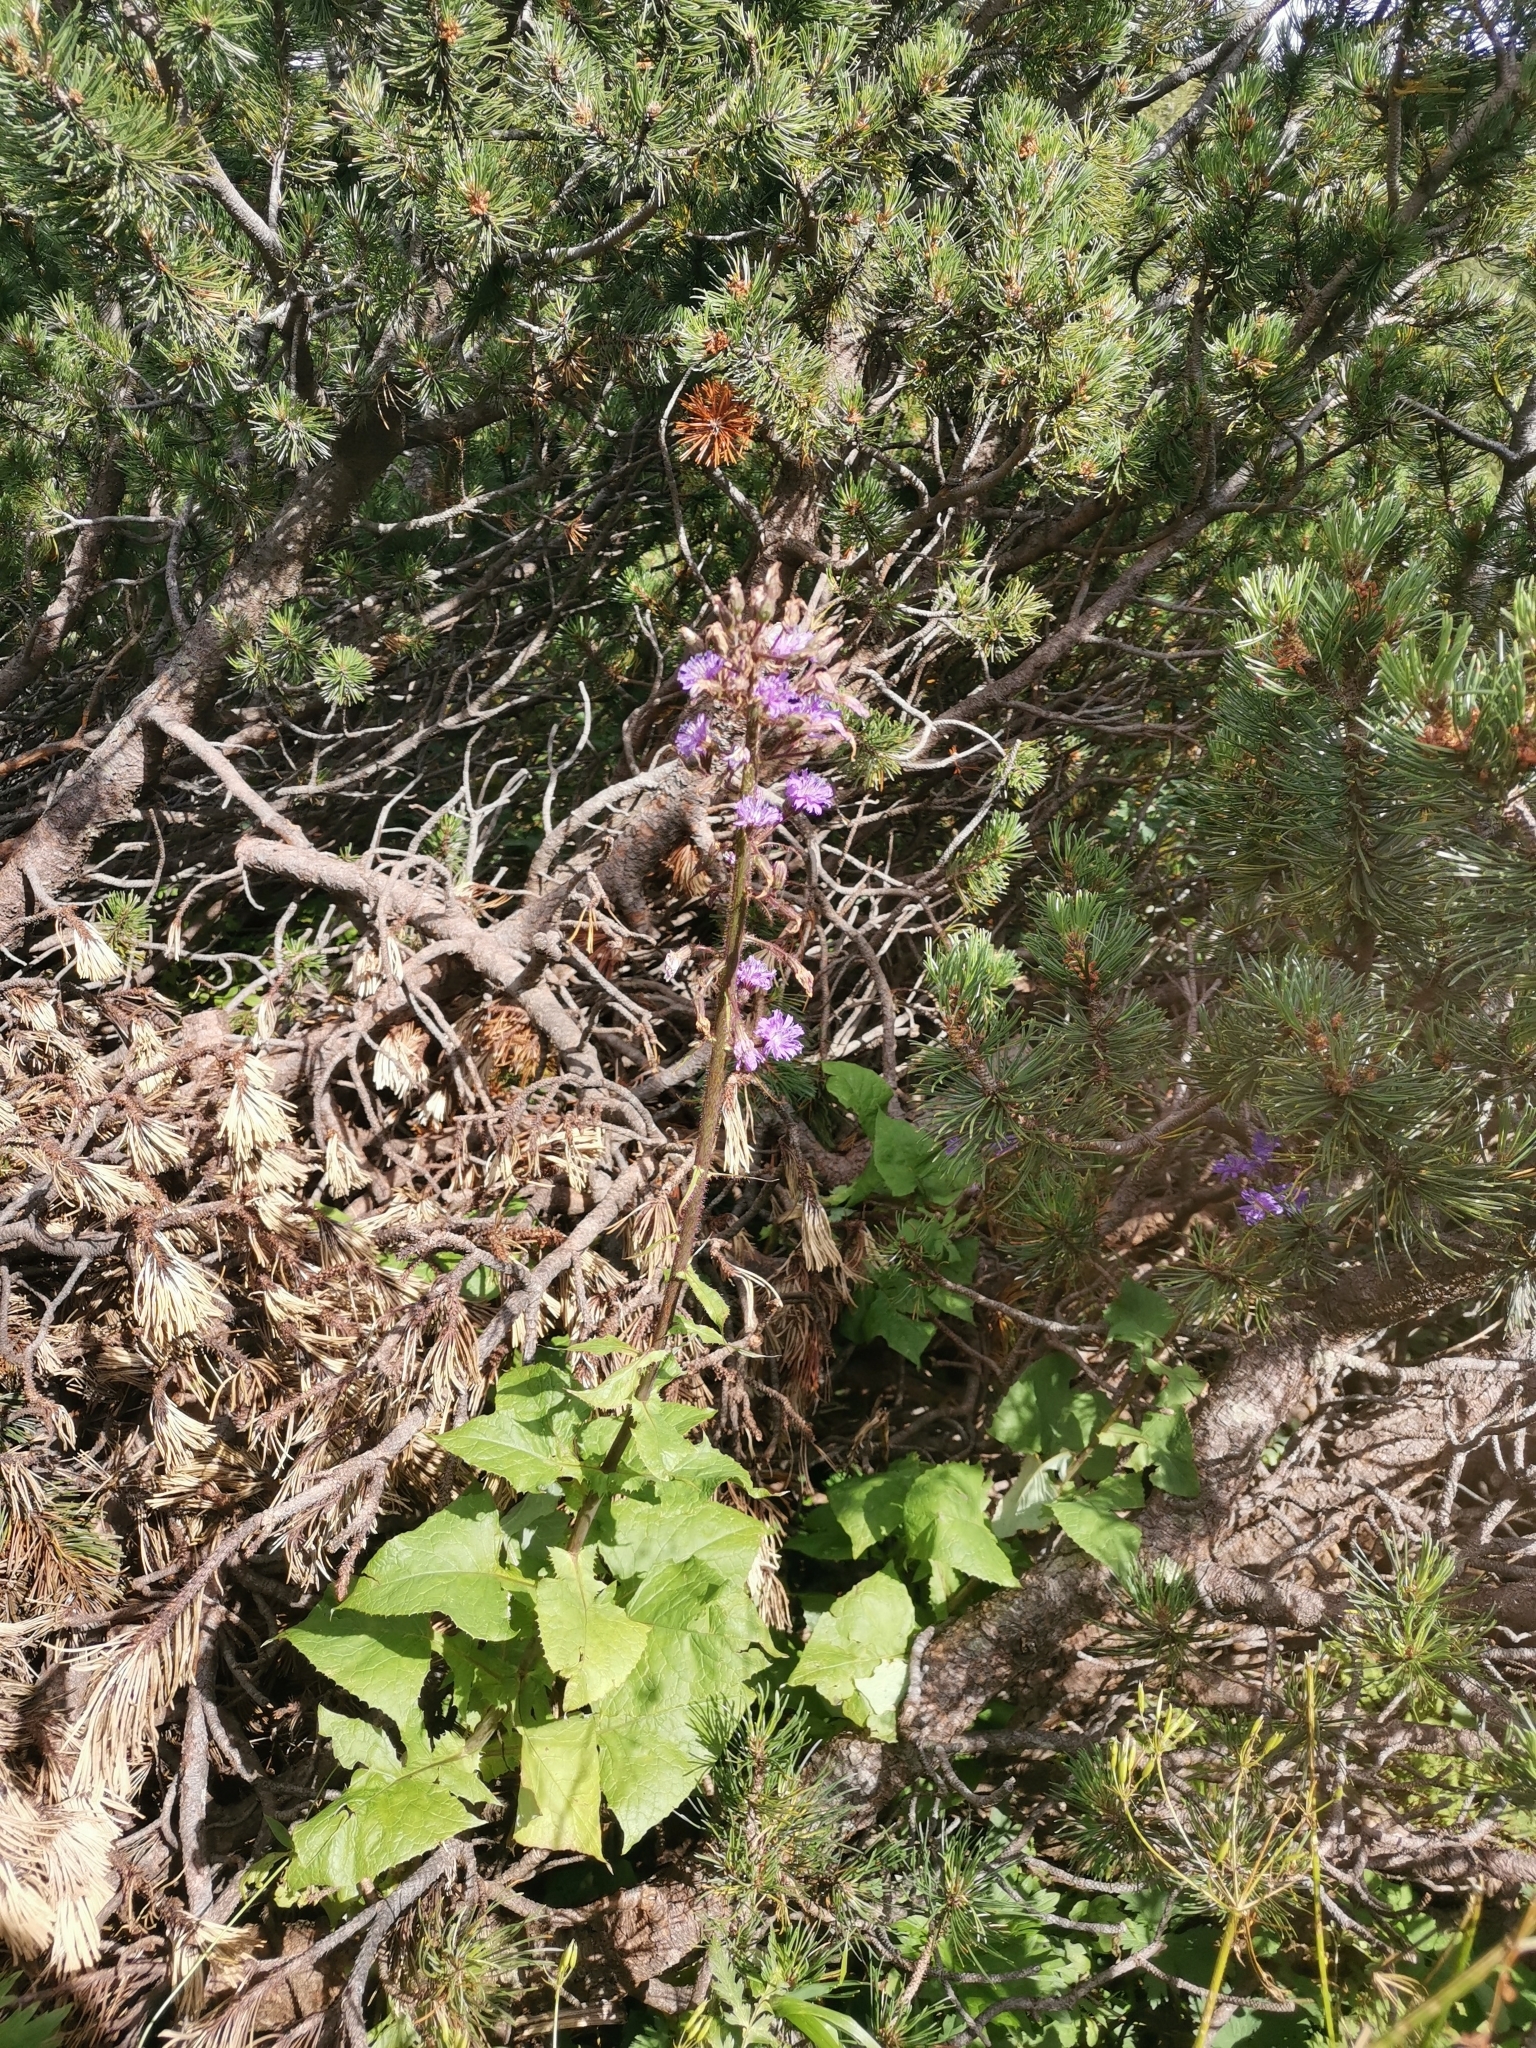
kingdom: Plantae
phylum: Tracheophyta
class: Magnoliopsida
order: Asterales
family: Asteraceae
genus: Cicerbita
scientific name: Cicerbita alpina
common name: Alpine blue-sow-thistle
